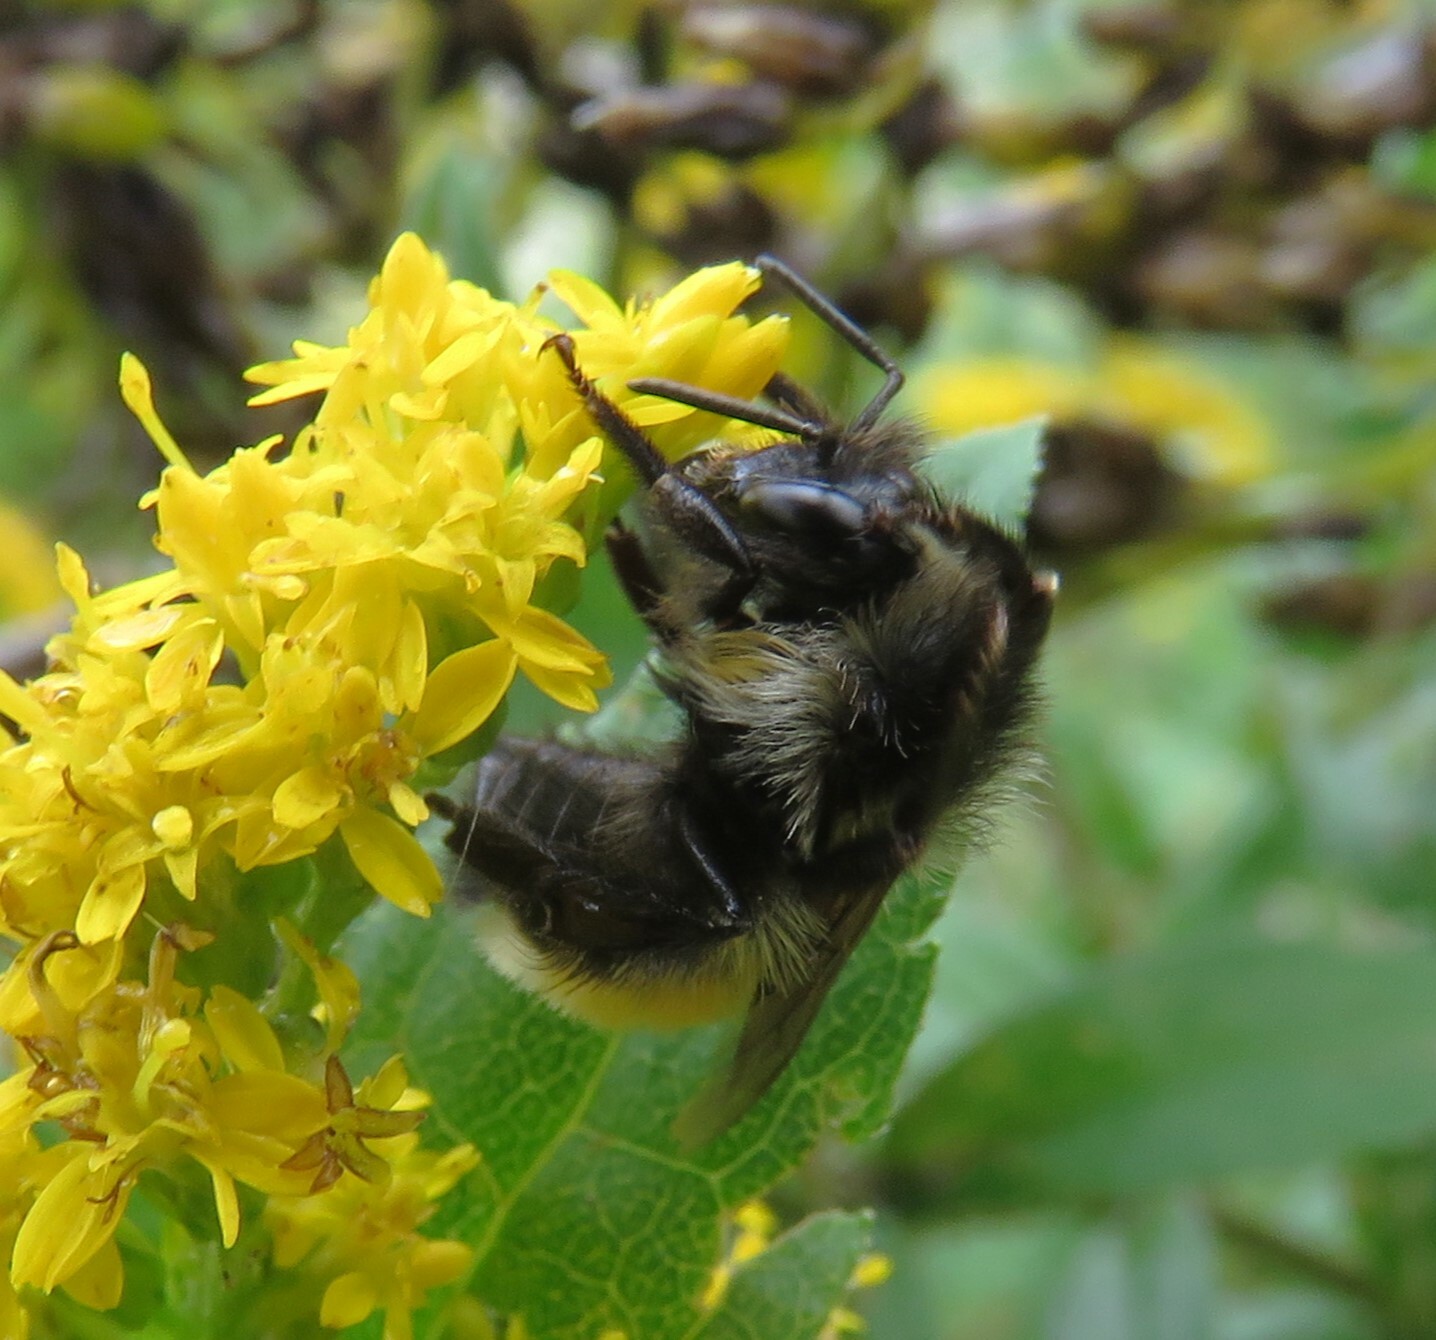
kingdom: Animalia
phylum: Arthropoda
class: Insecta
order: Hymenoptera
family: Apidae
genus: Bombus
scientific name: Bombus ternarius
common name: Tri-colored bumble bee
